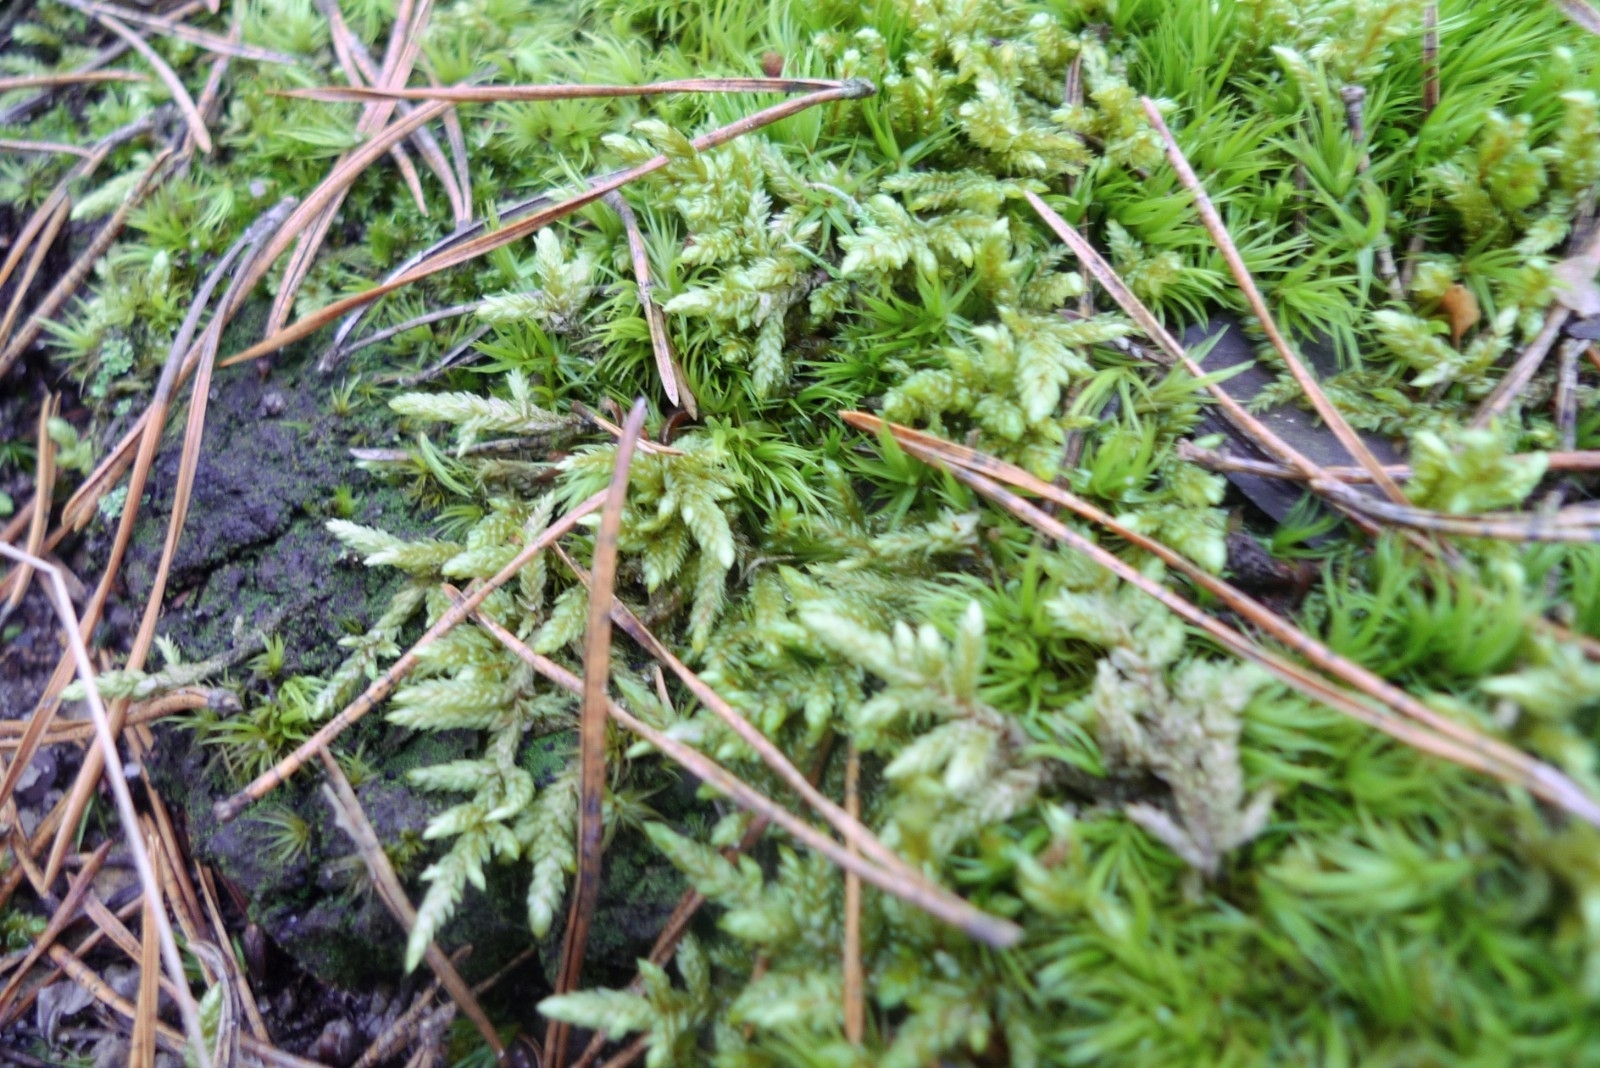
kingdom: Plantae
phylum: Bryophyta
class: Bryopsida
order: Hypnales
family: Hypnaceae
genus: Hypnum
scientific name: Hypnum cupressiforme
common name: Cypress-leaved plait-moss
